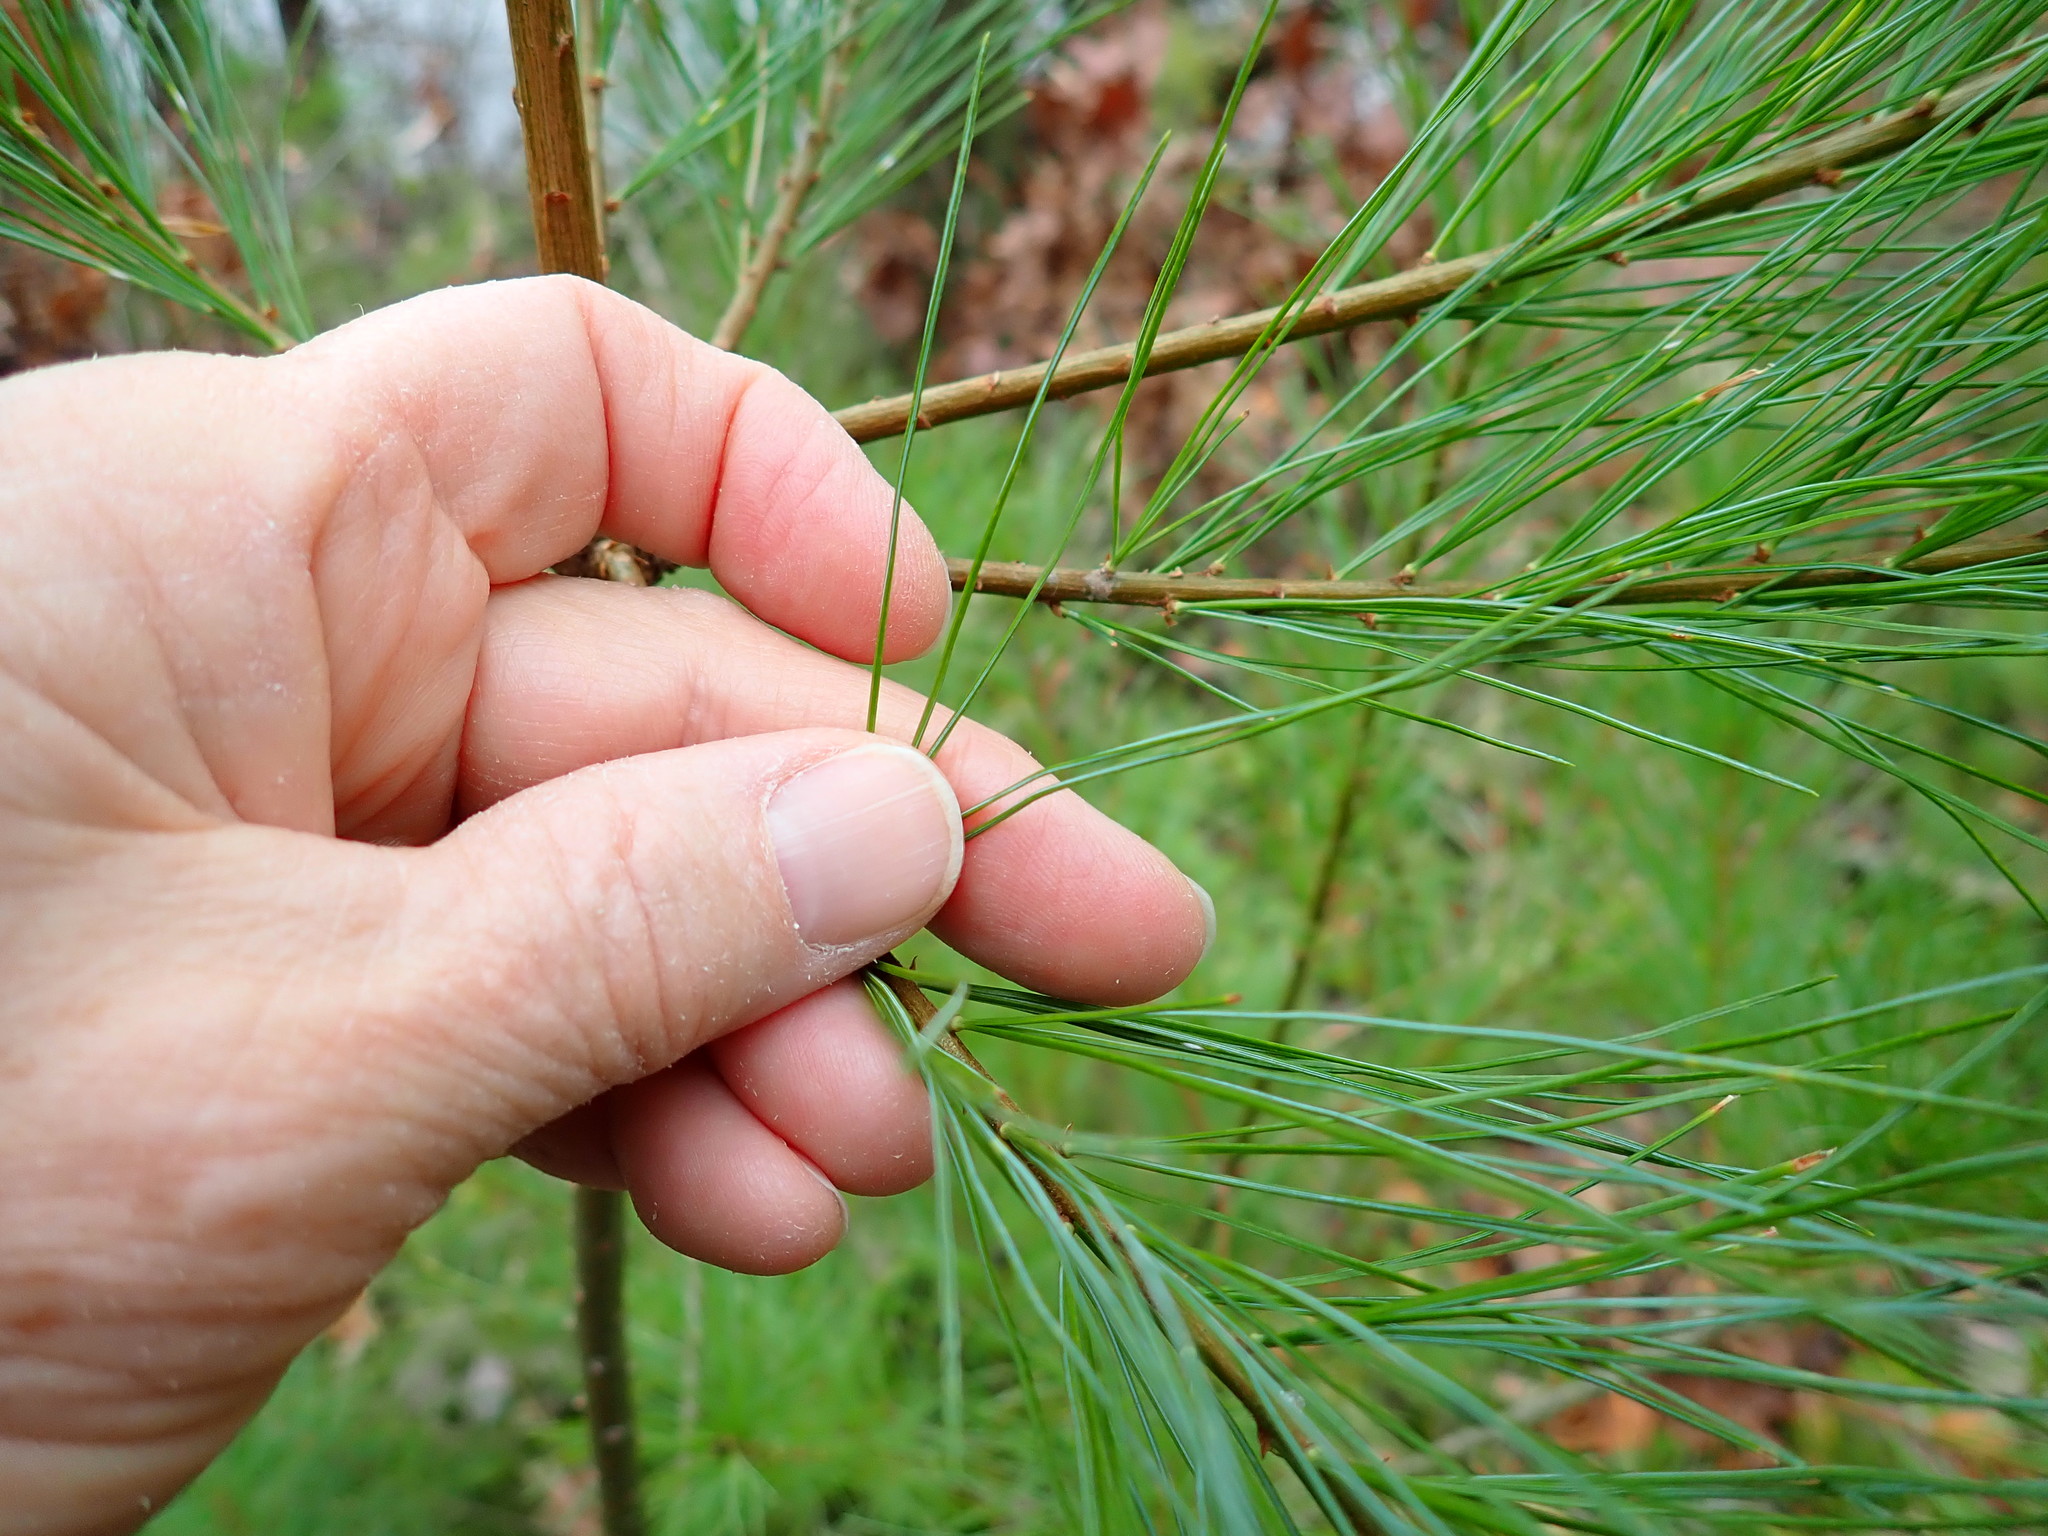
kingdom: Plantae
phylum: Tracheophyta
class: Pinopsida
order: Pinales
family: Pinaceae
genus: Pinus
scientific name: Pinus strobus
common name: Weymouth pine
